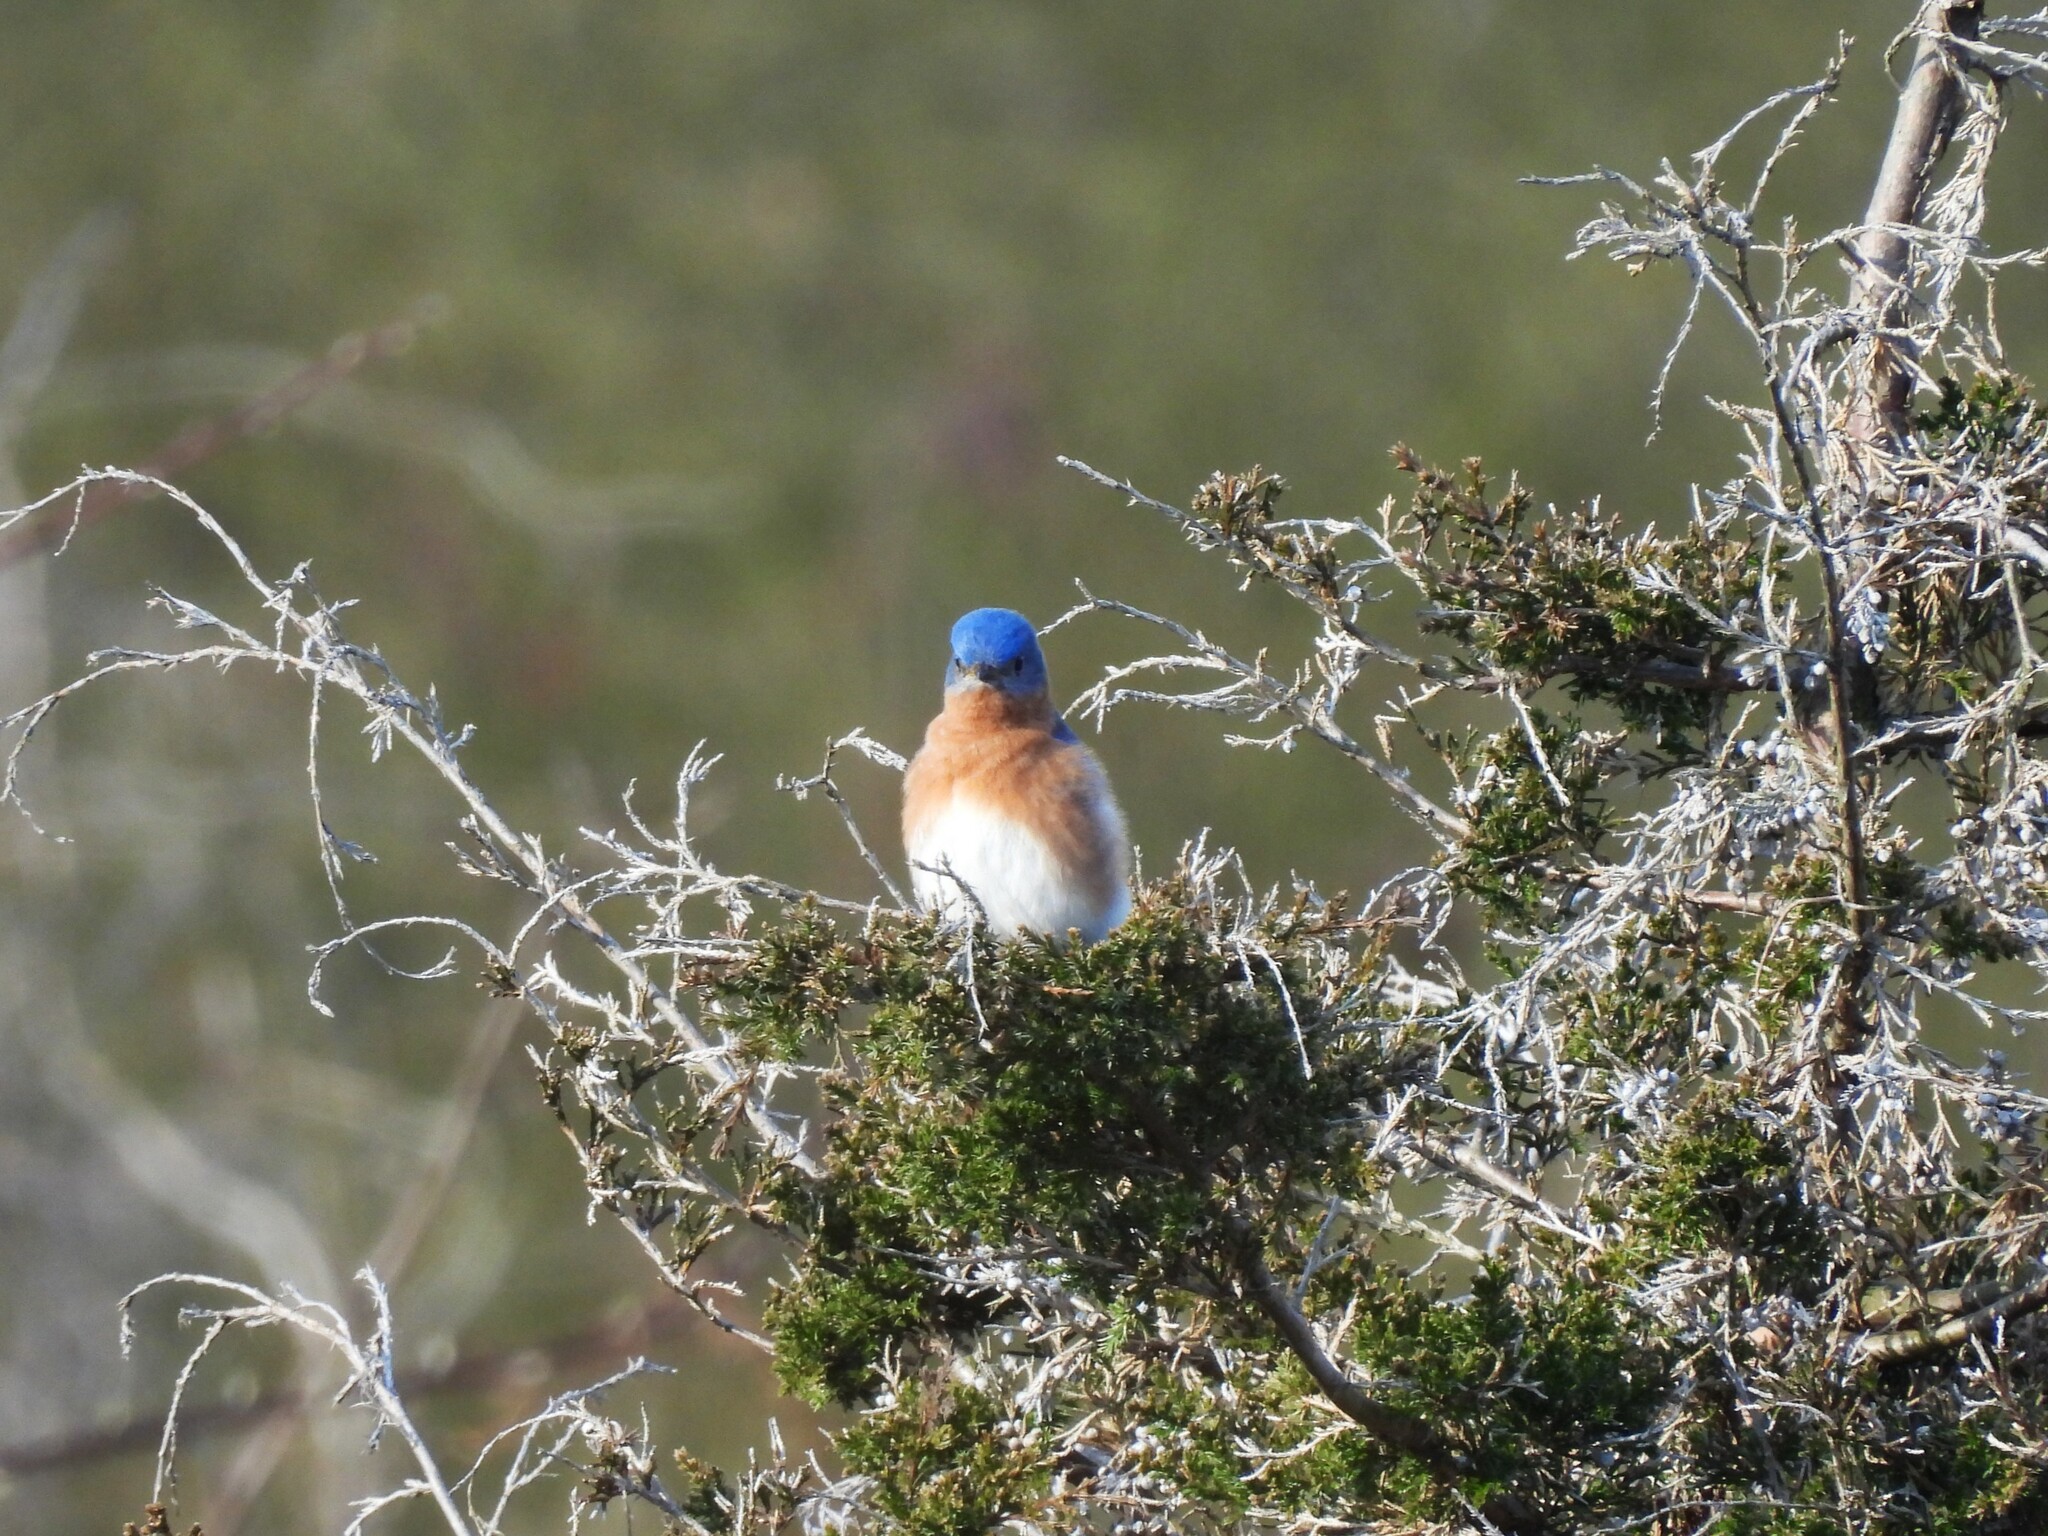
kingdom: Animalia
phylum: Chordata
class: Aves
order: Passeriformes
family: Turdidae
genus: Sialia
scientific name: Sialia sialis
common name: Eastern bluebird
